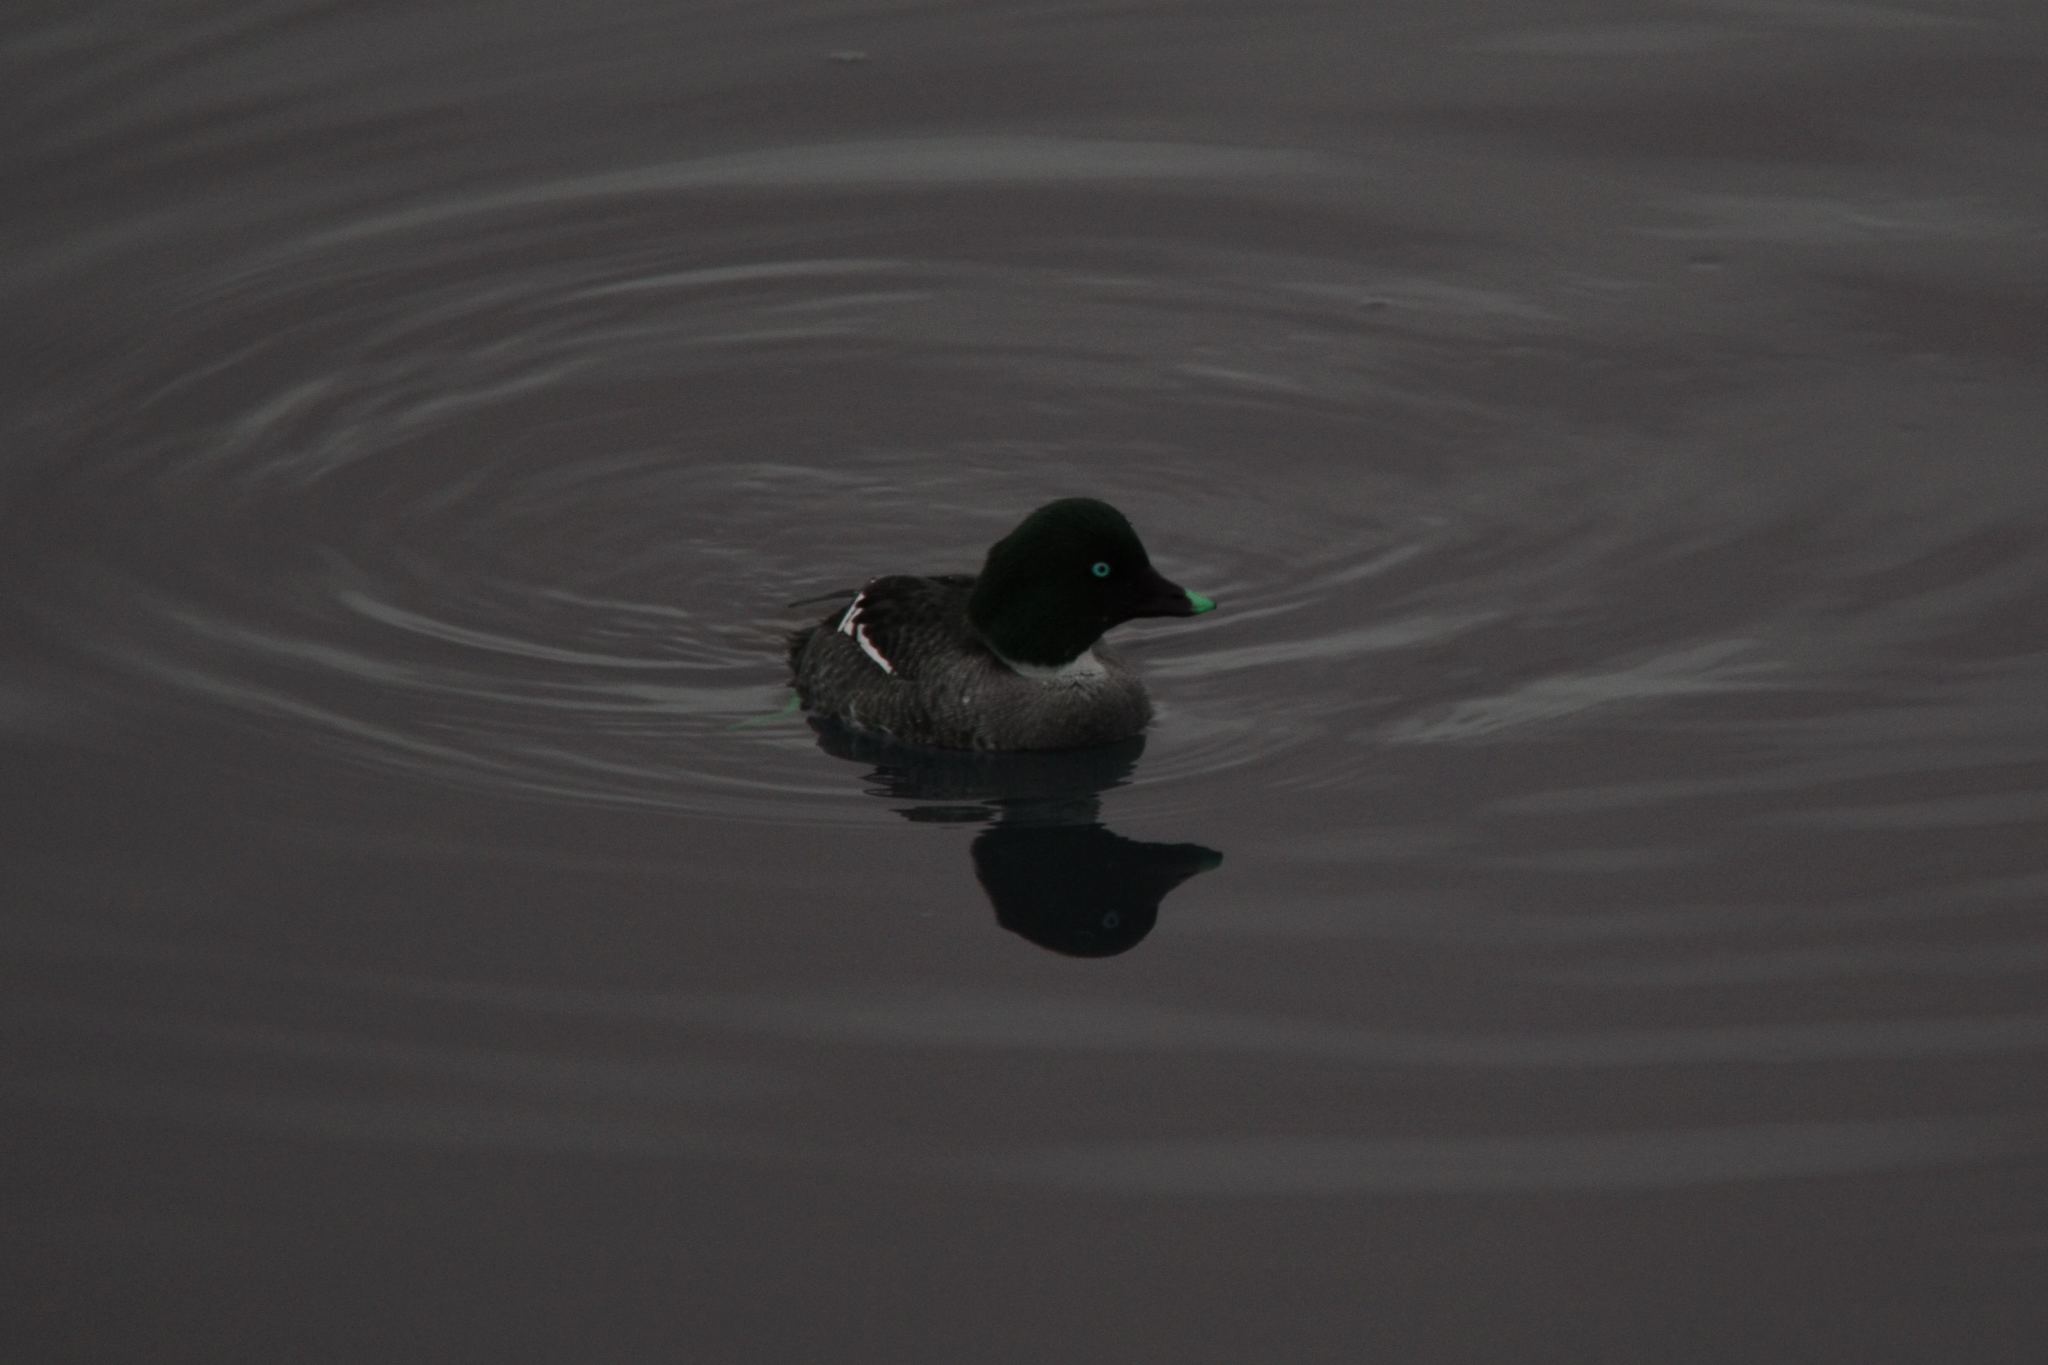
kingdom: Animalia
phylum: Chordata
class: Aves
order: Anseriformes
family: Anatidae
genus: Bucephala
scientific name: Bucephala clangula
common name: Common goldeneye
